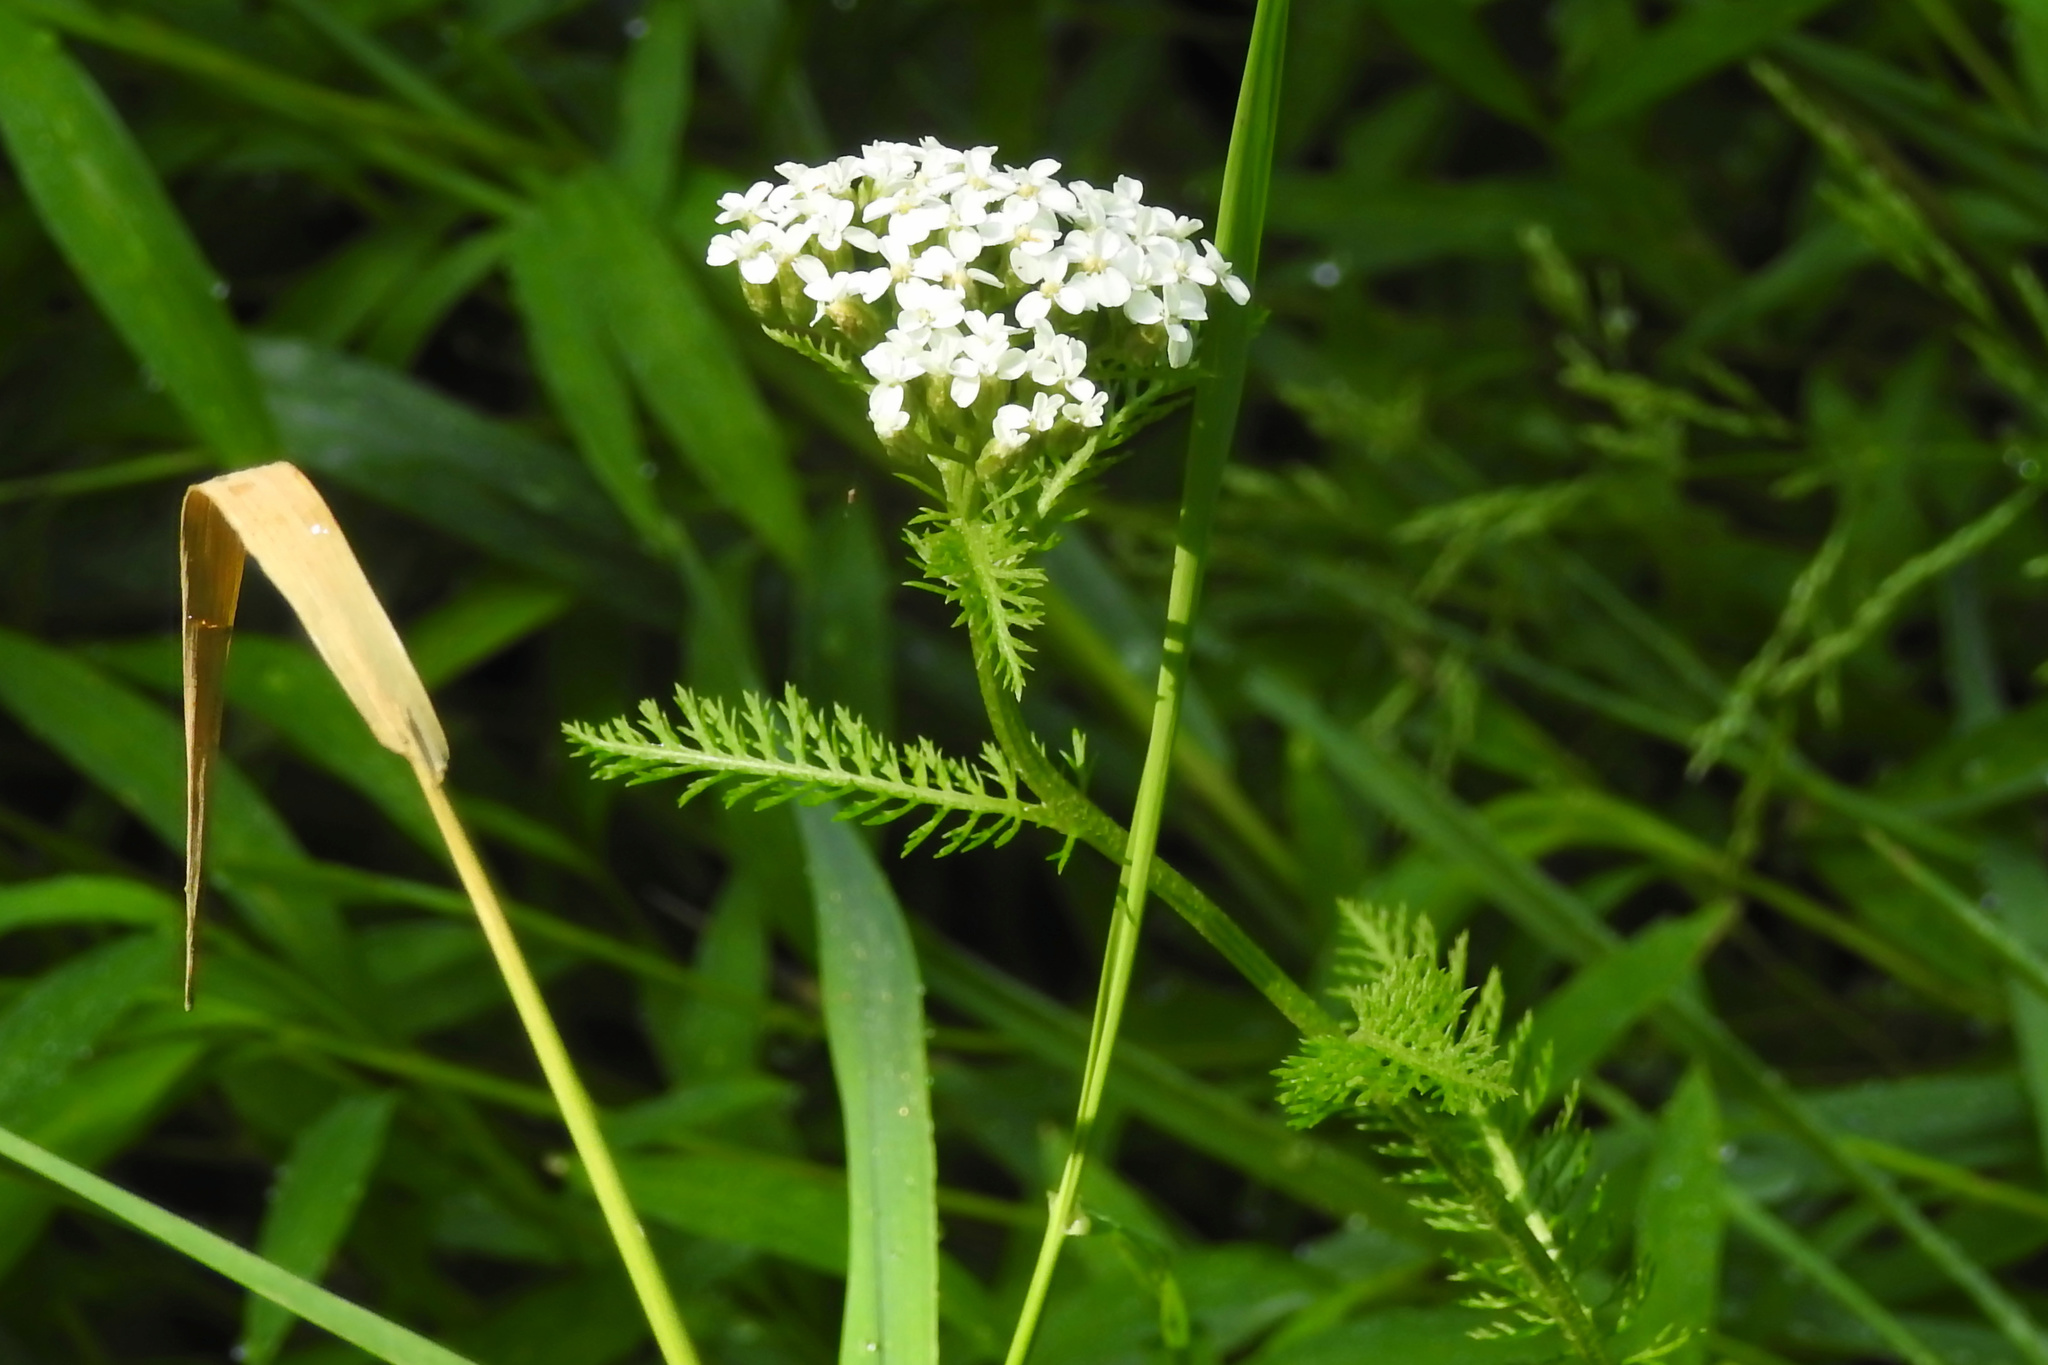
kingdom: Plantae
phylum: Tracheophyta
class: Magnoliopsida
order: Asterales
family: Asteraceae
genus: Achillea
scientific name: Achillea millefolium
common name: Yarrow
